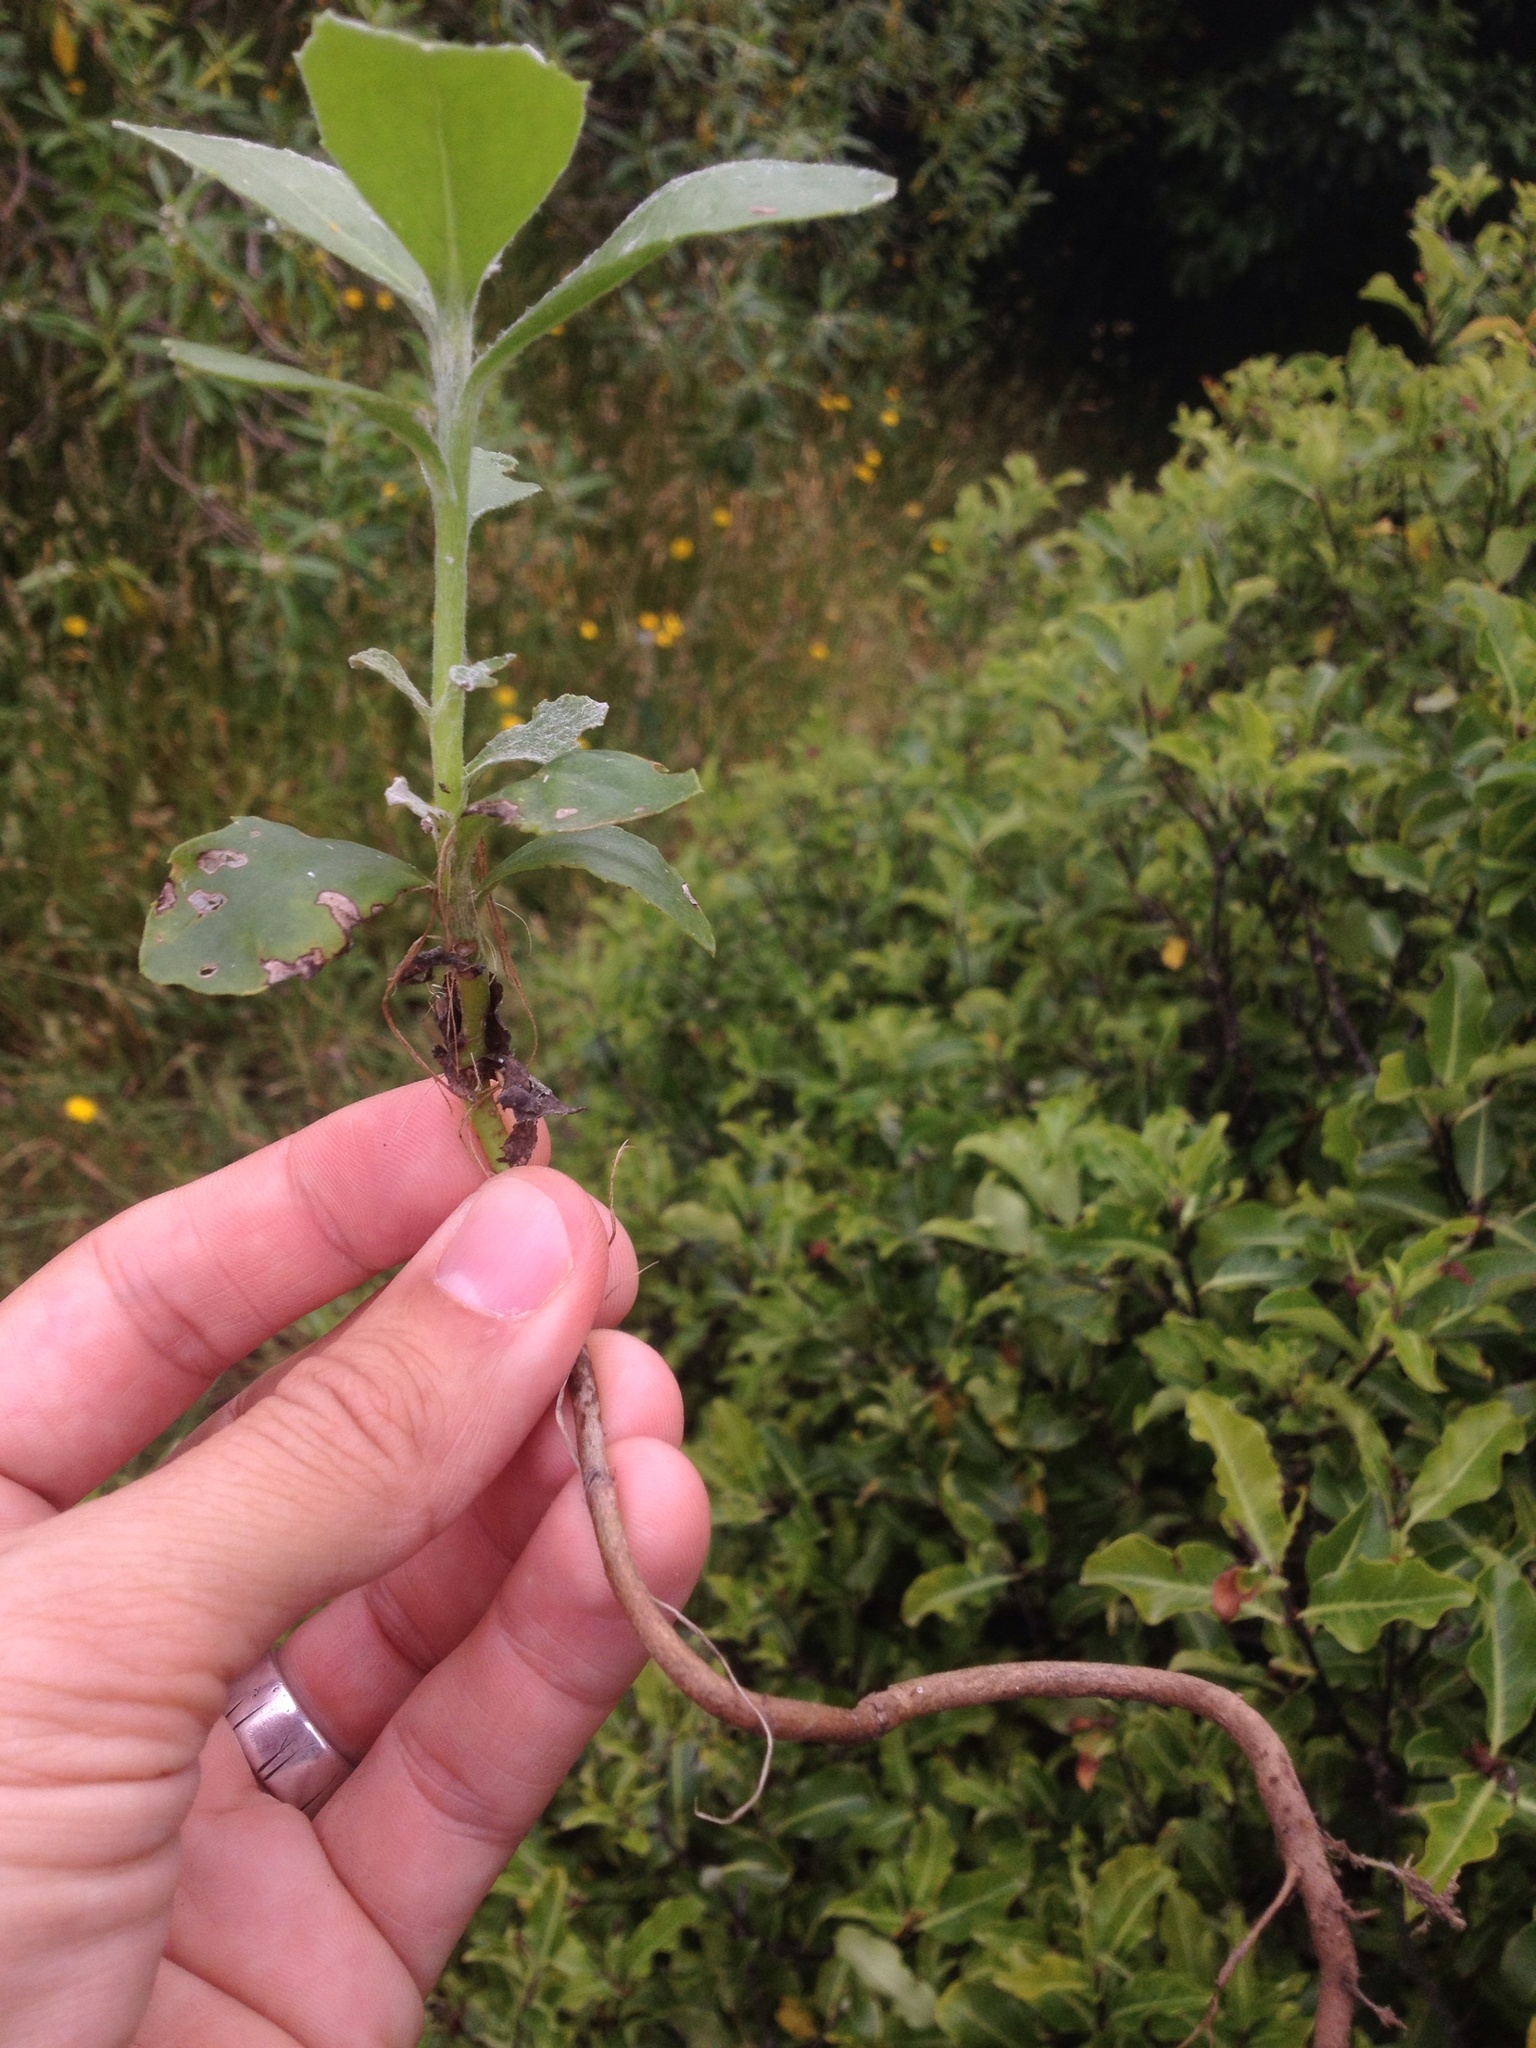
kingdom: Plantae
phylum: Tracheophyta
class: Magnoliopsida
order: Asterales
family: Asteraceae
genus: Osteospermum
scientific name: Osteospermum moniliferum
